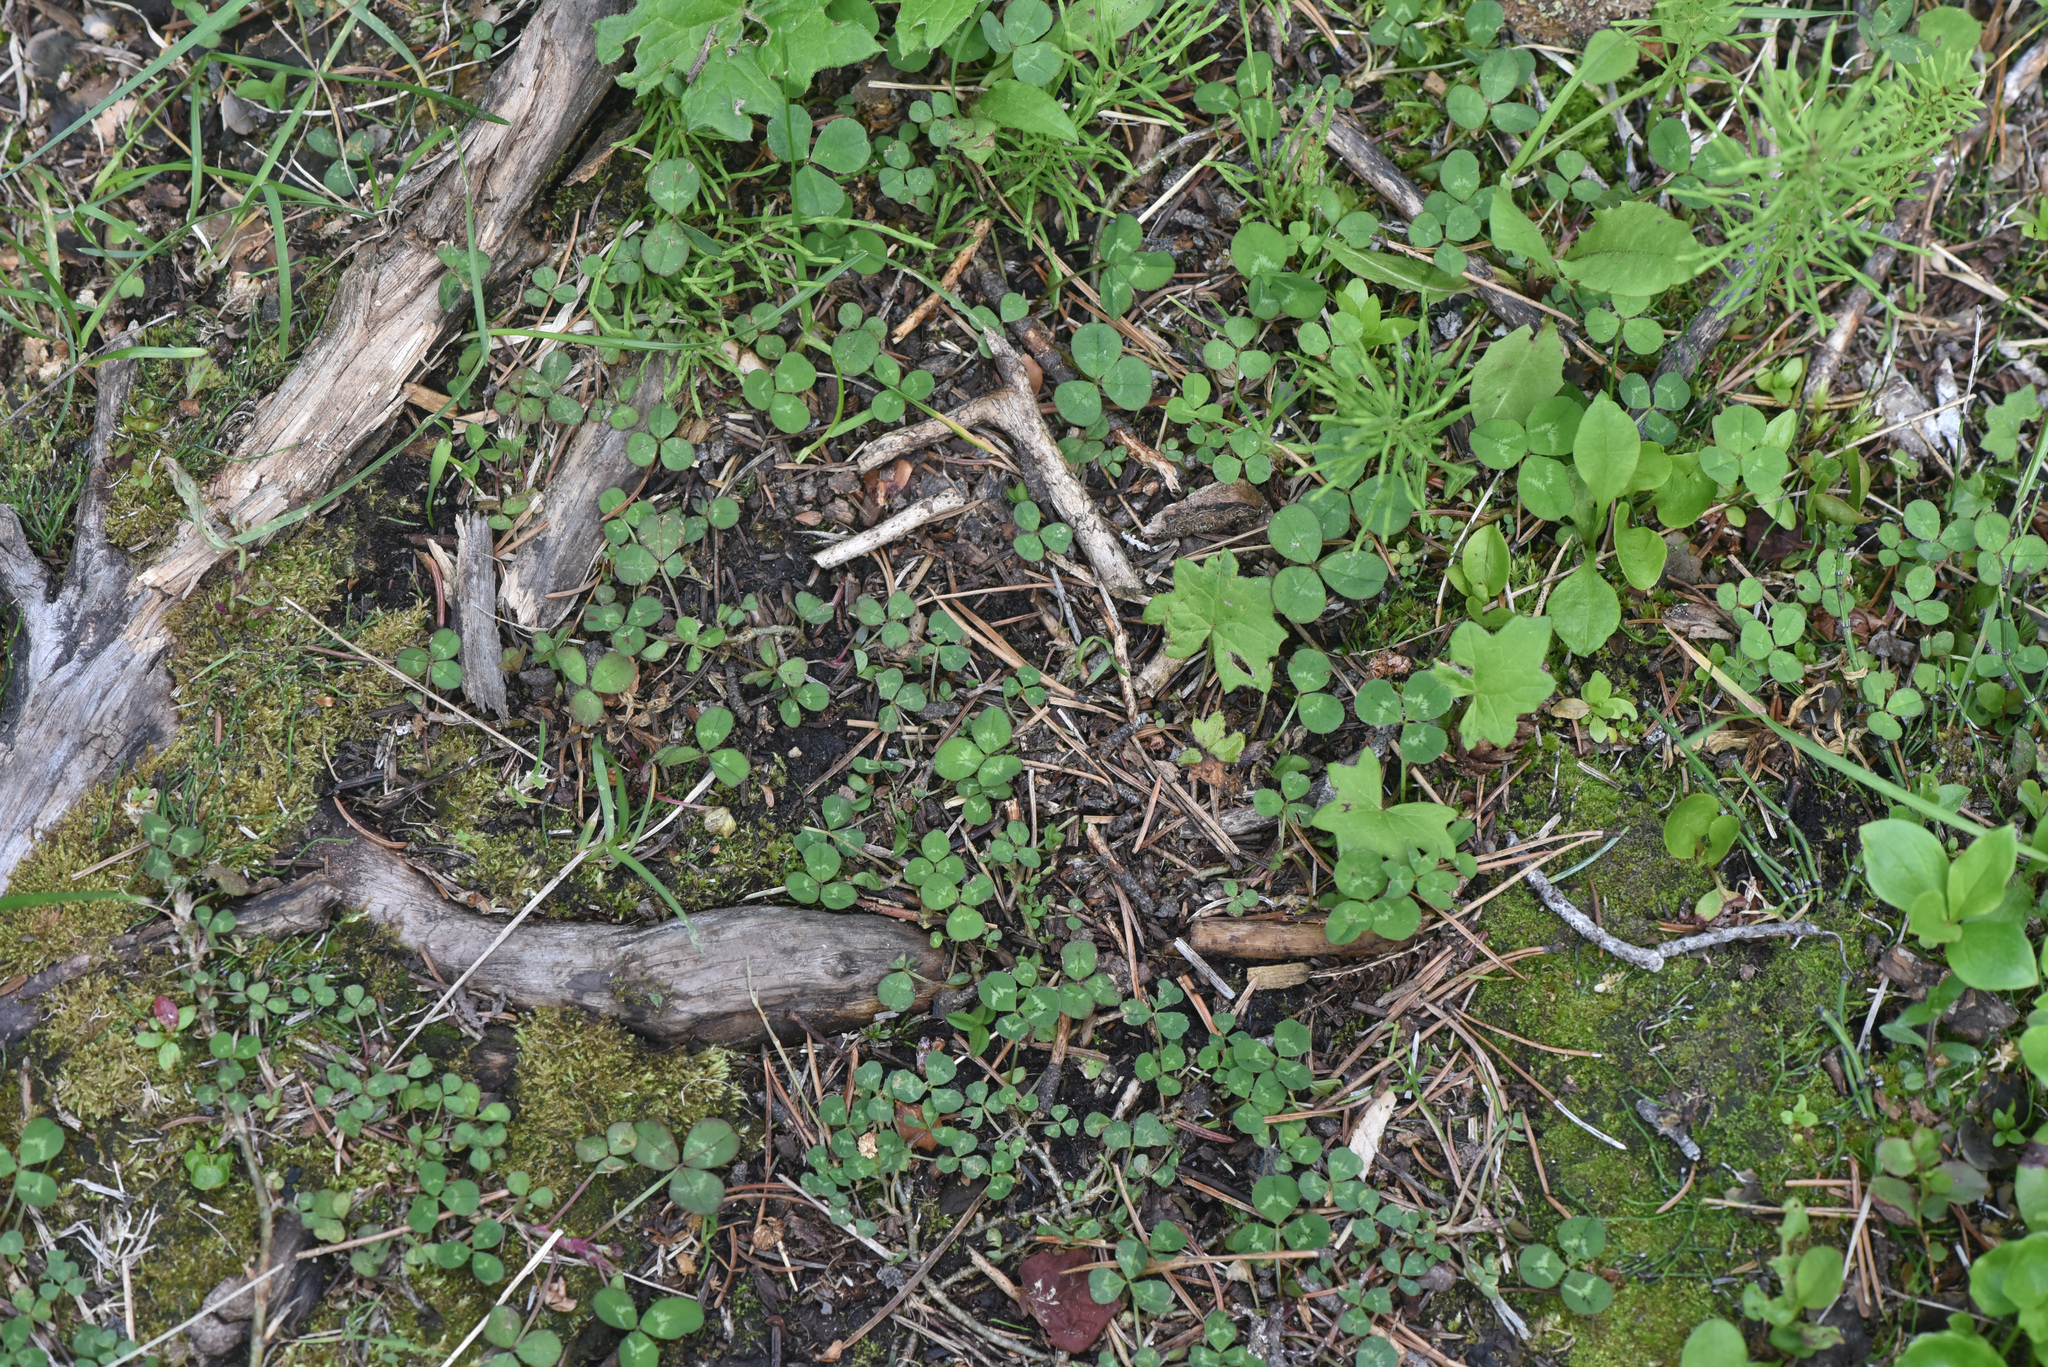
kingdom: Plantae
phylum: Tracheophyta
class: Magnoliopsida
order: Fabales
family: Fabaceae
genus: Trifolium
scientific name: Trifolium repens
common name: White clover
